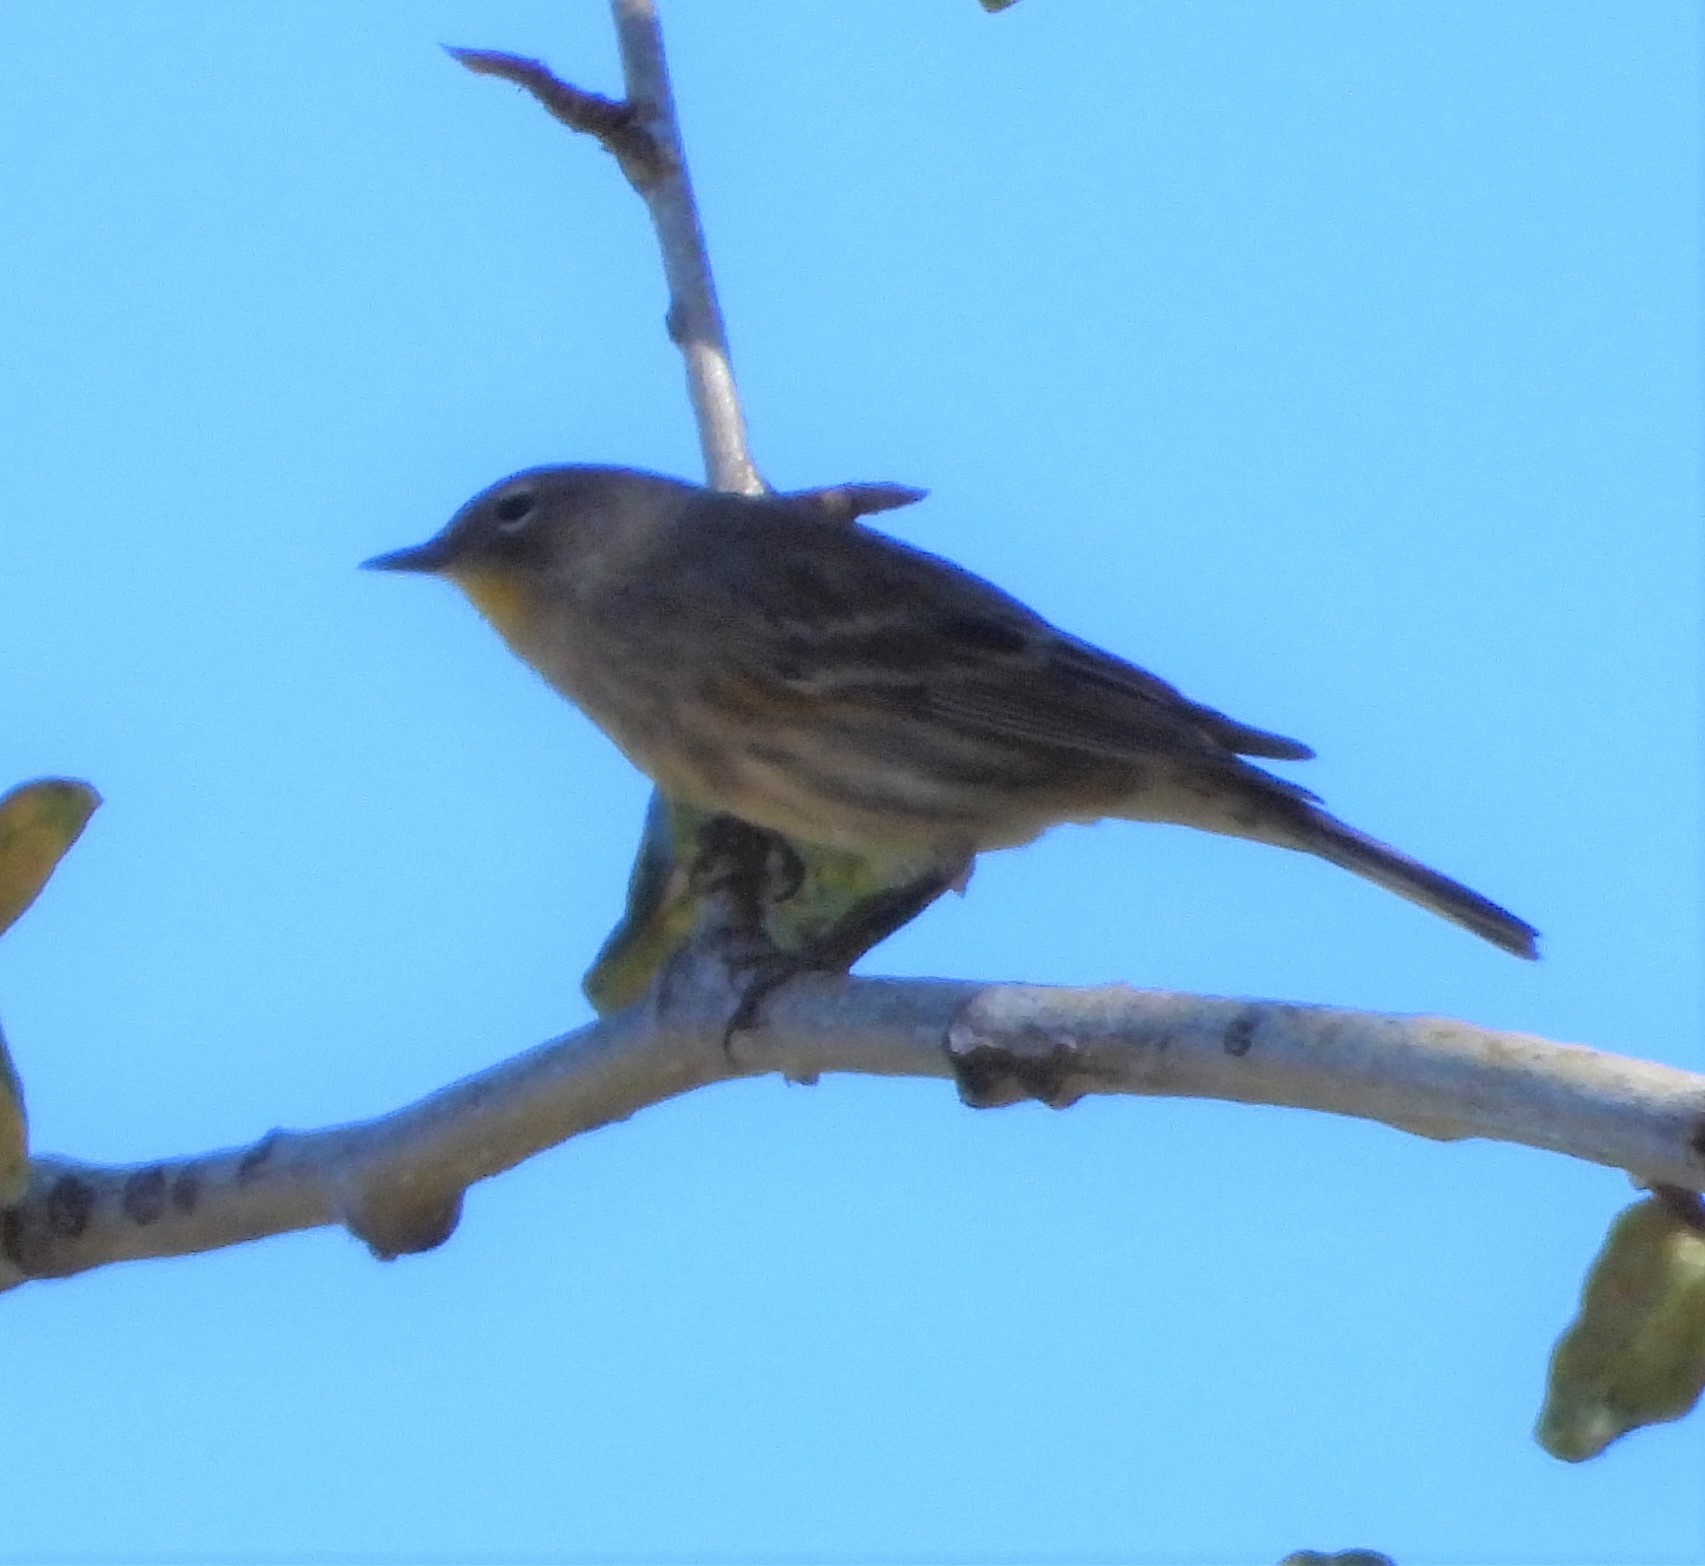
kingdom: Animalia
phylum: Chordata
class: Aves
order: Passeriformes
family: Parulidae
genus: Setophaga
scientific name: Setophaga coronata
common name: Myrtle warbler
